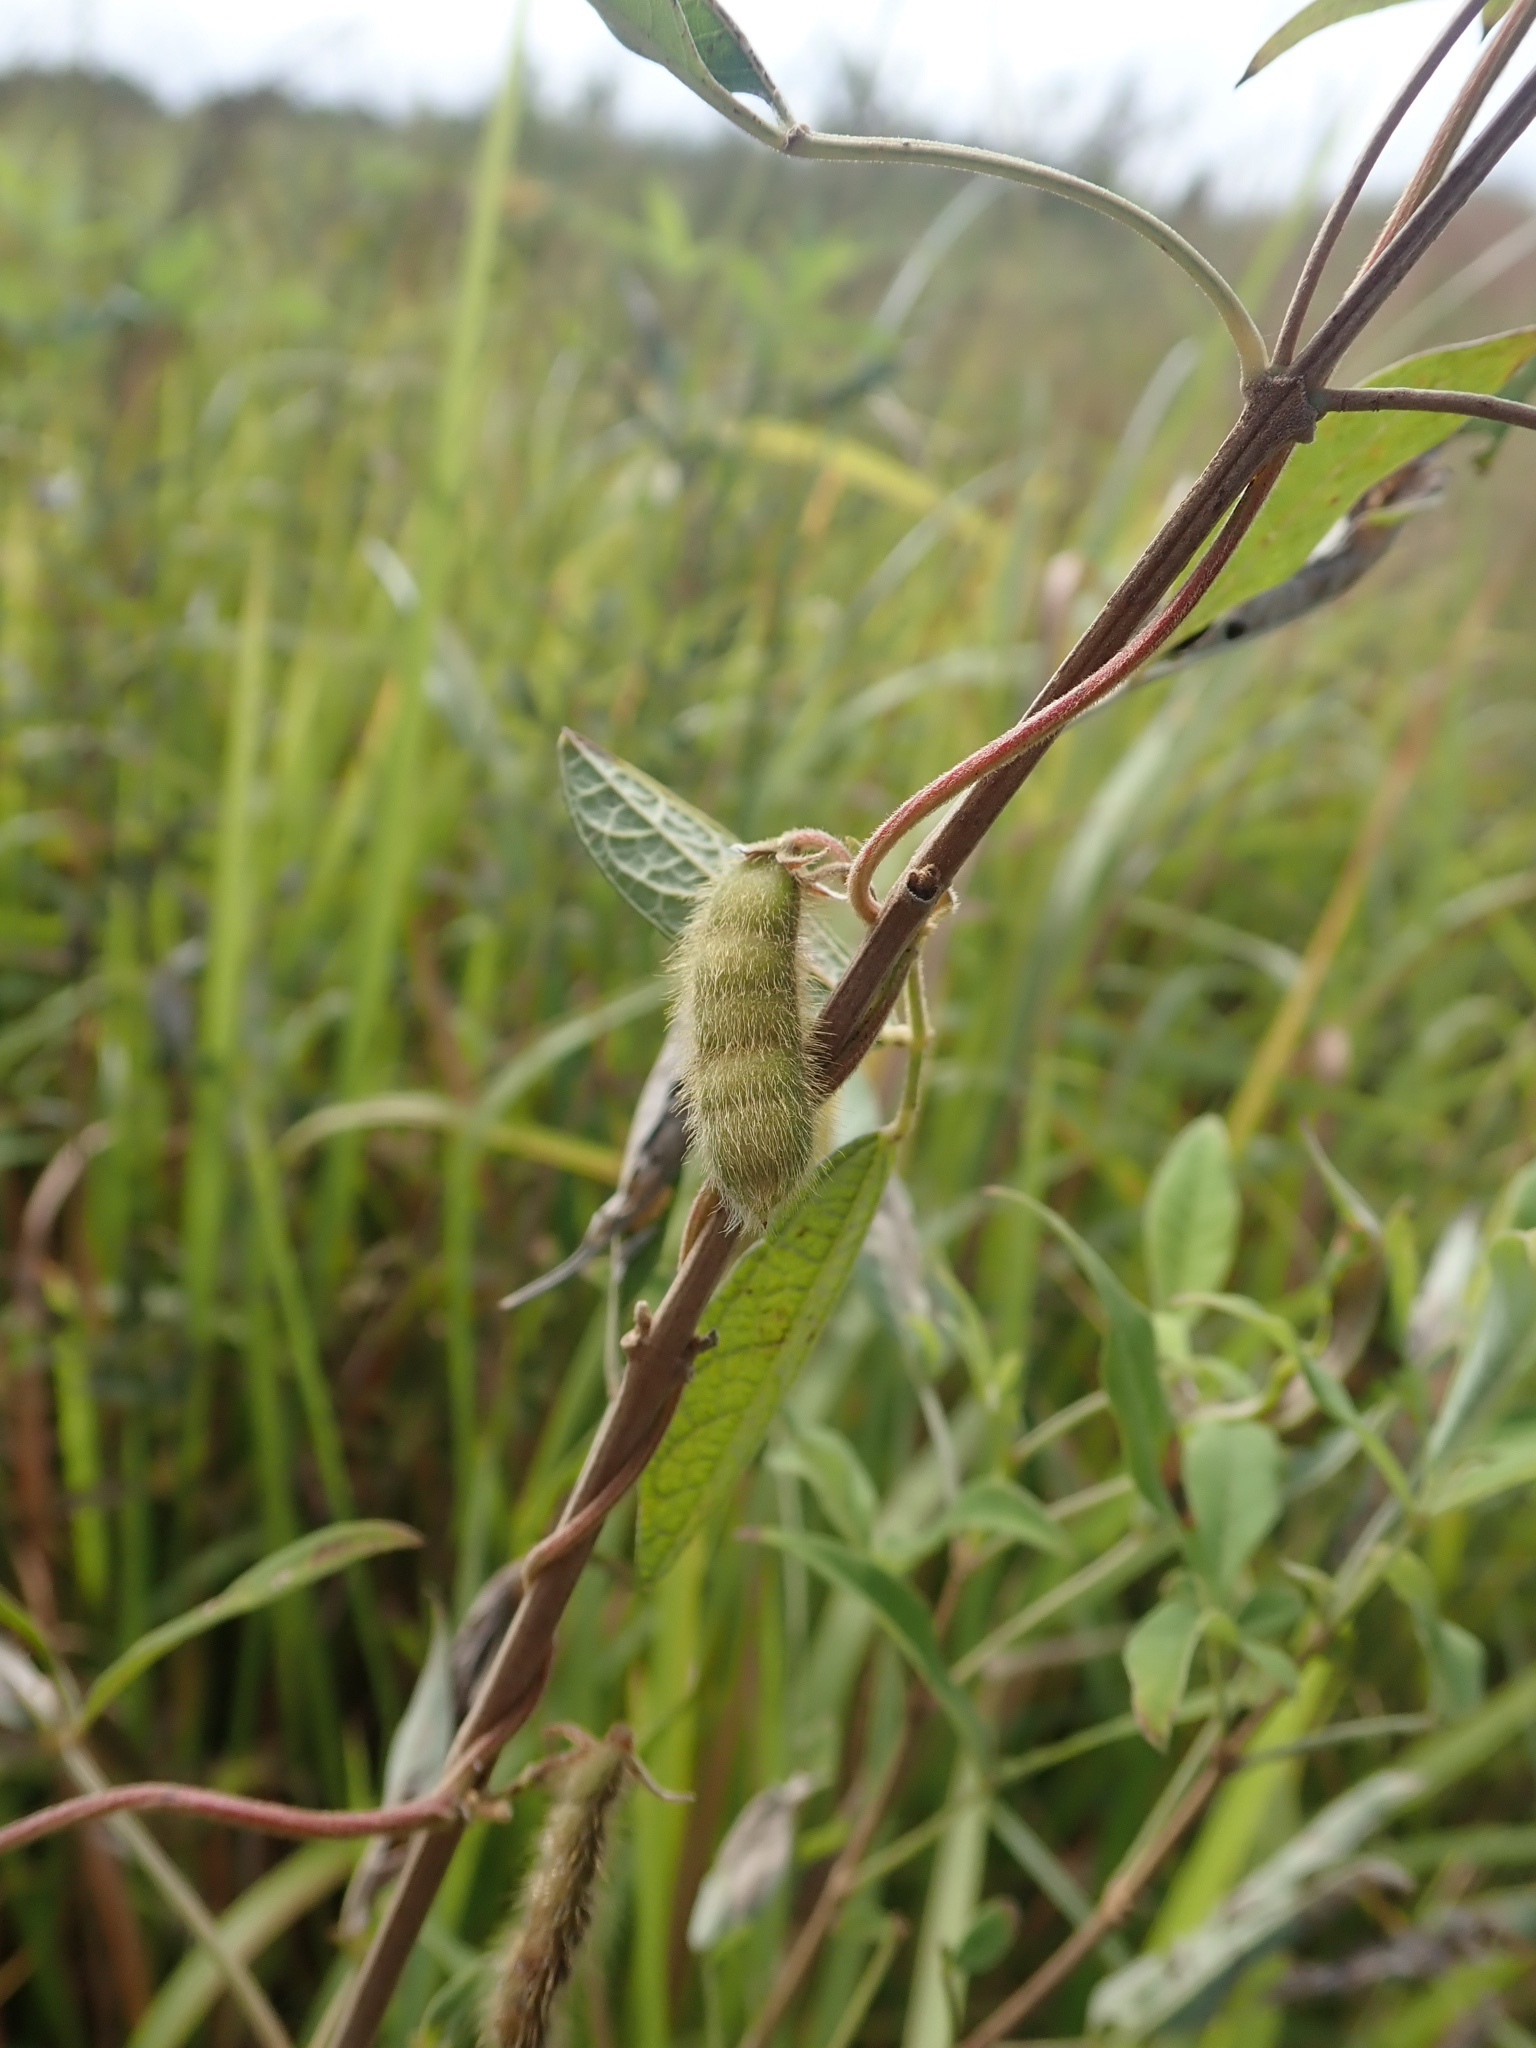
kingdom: Plantae
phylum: Tracheophyta
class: Magnoliopsida
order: Fabales
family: Fabaceae
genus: Cajanus
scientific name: Cajanus scarabaeoides
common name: Showy pigeonpea
